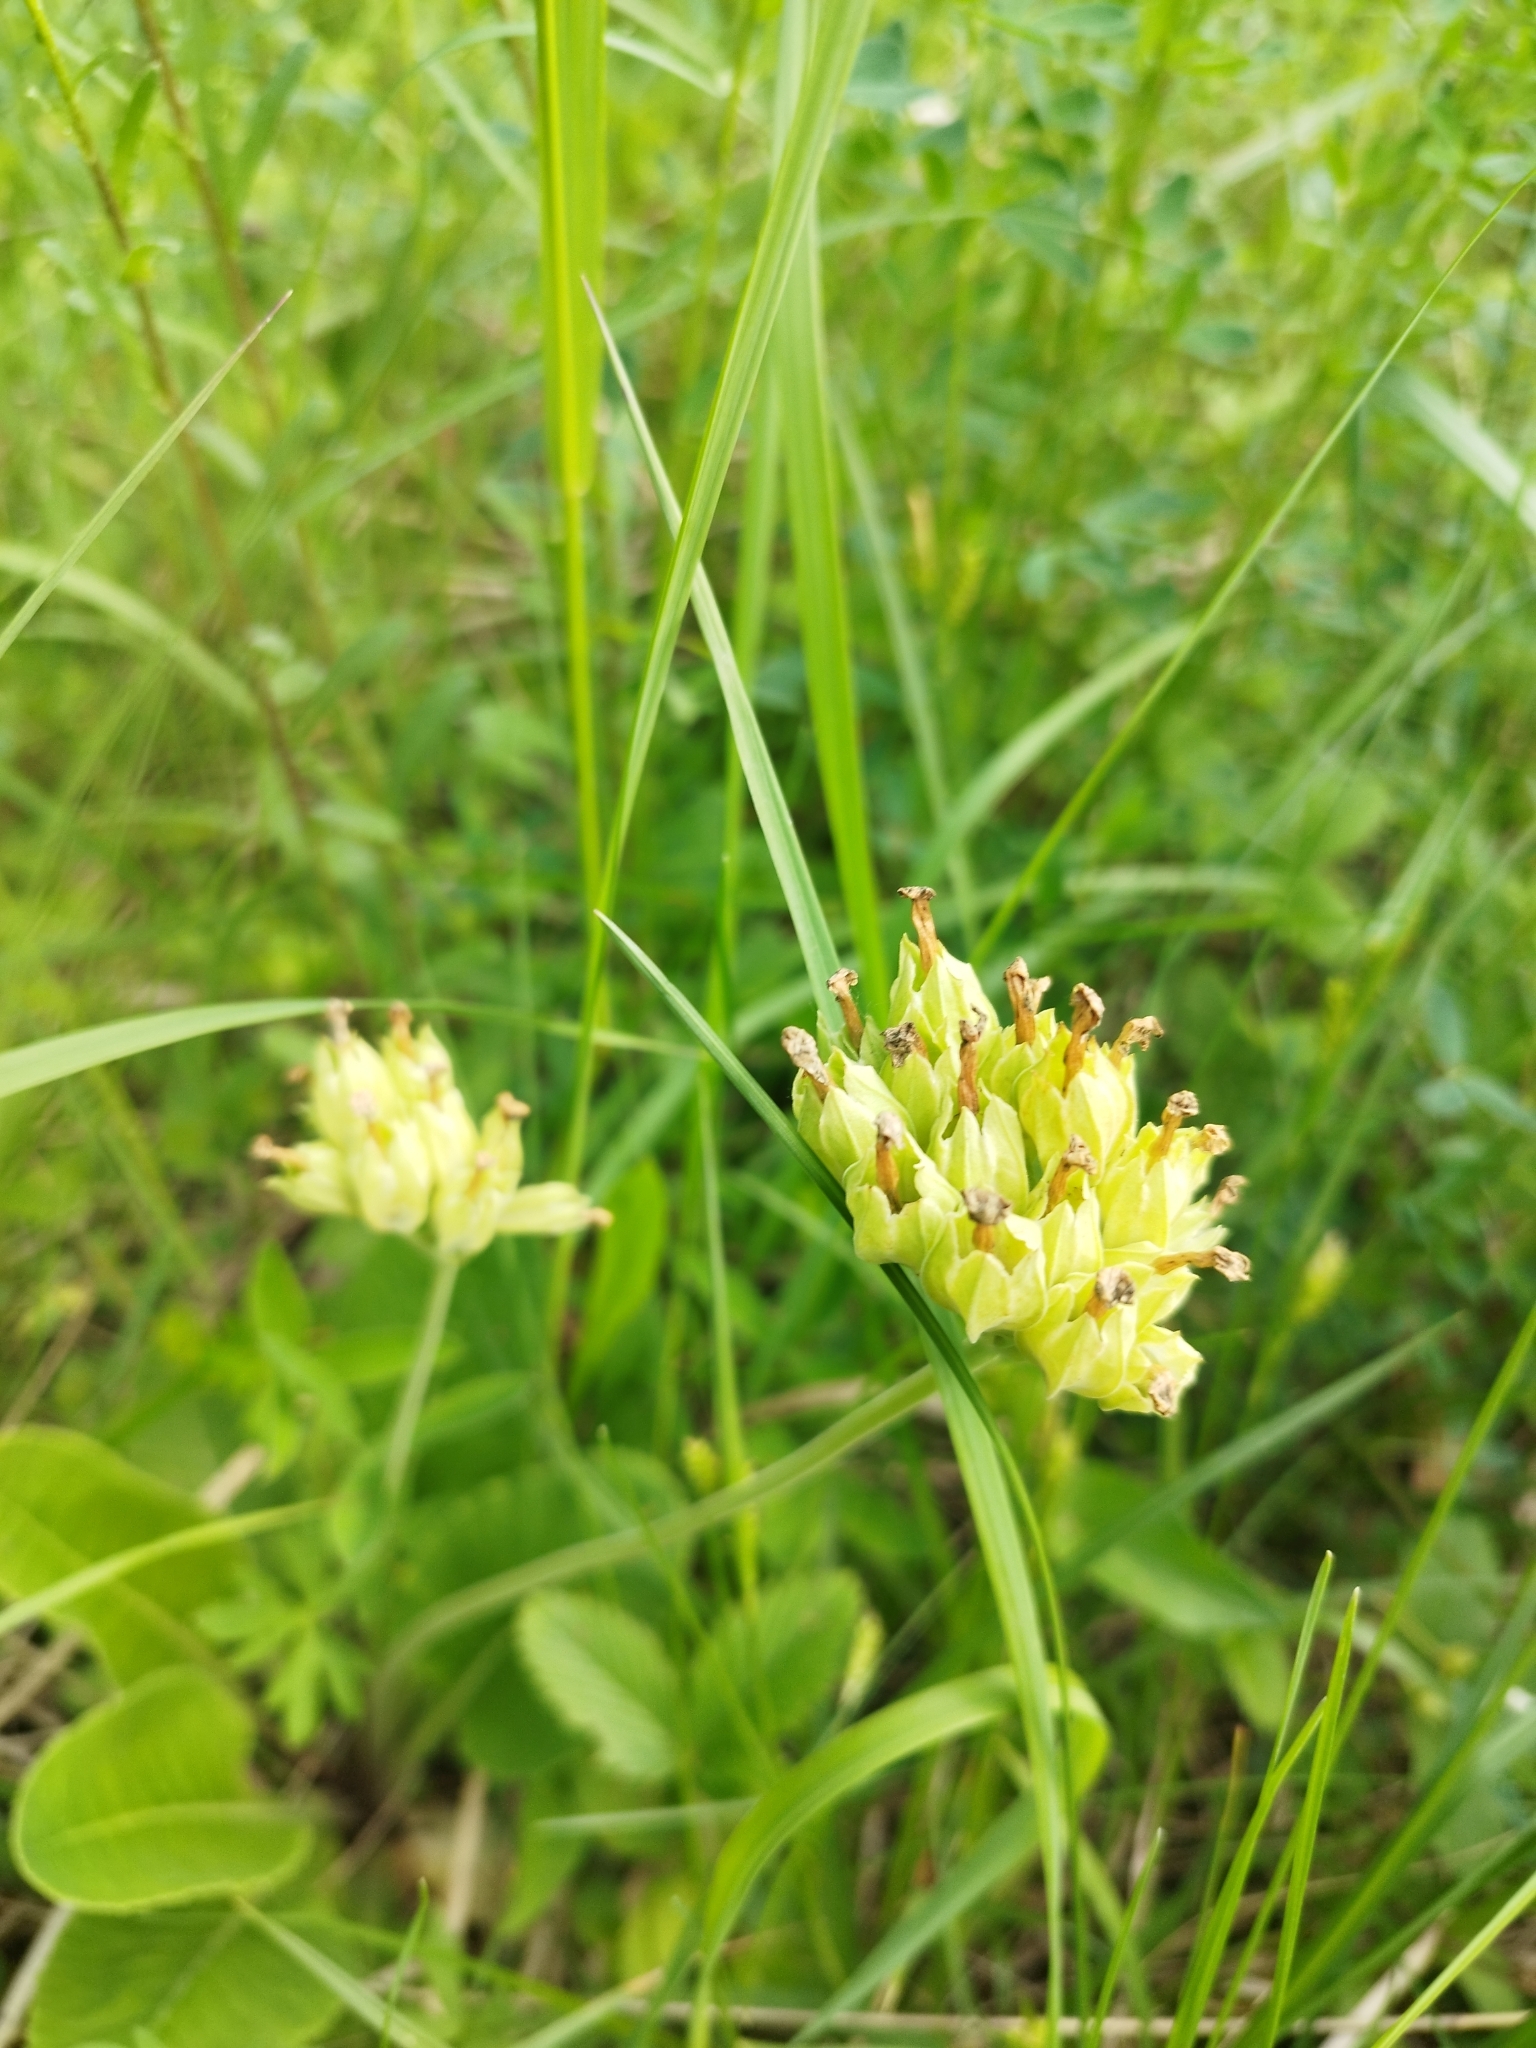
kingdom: Plantae
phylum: Tracheophyta
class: Magnoliopsida
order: Ericales
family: Primulaceae
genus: Primula
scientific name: Primula veris
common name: Cowslip
